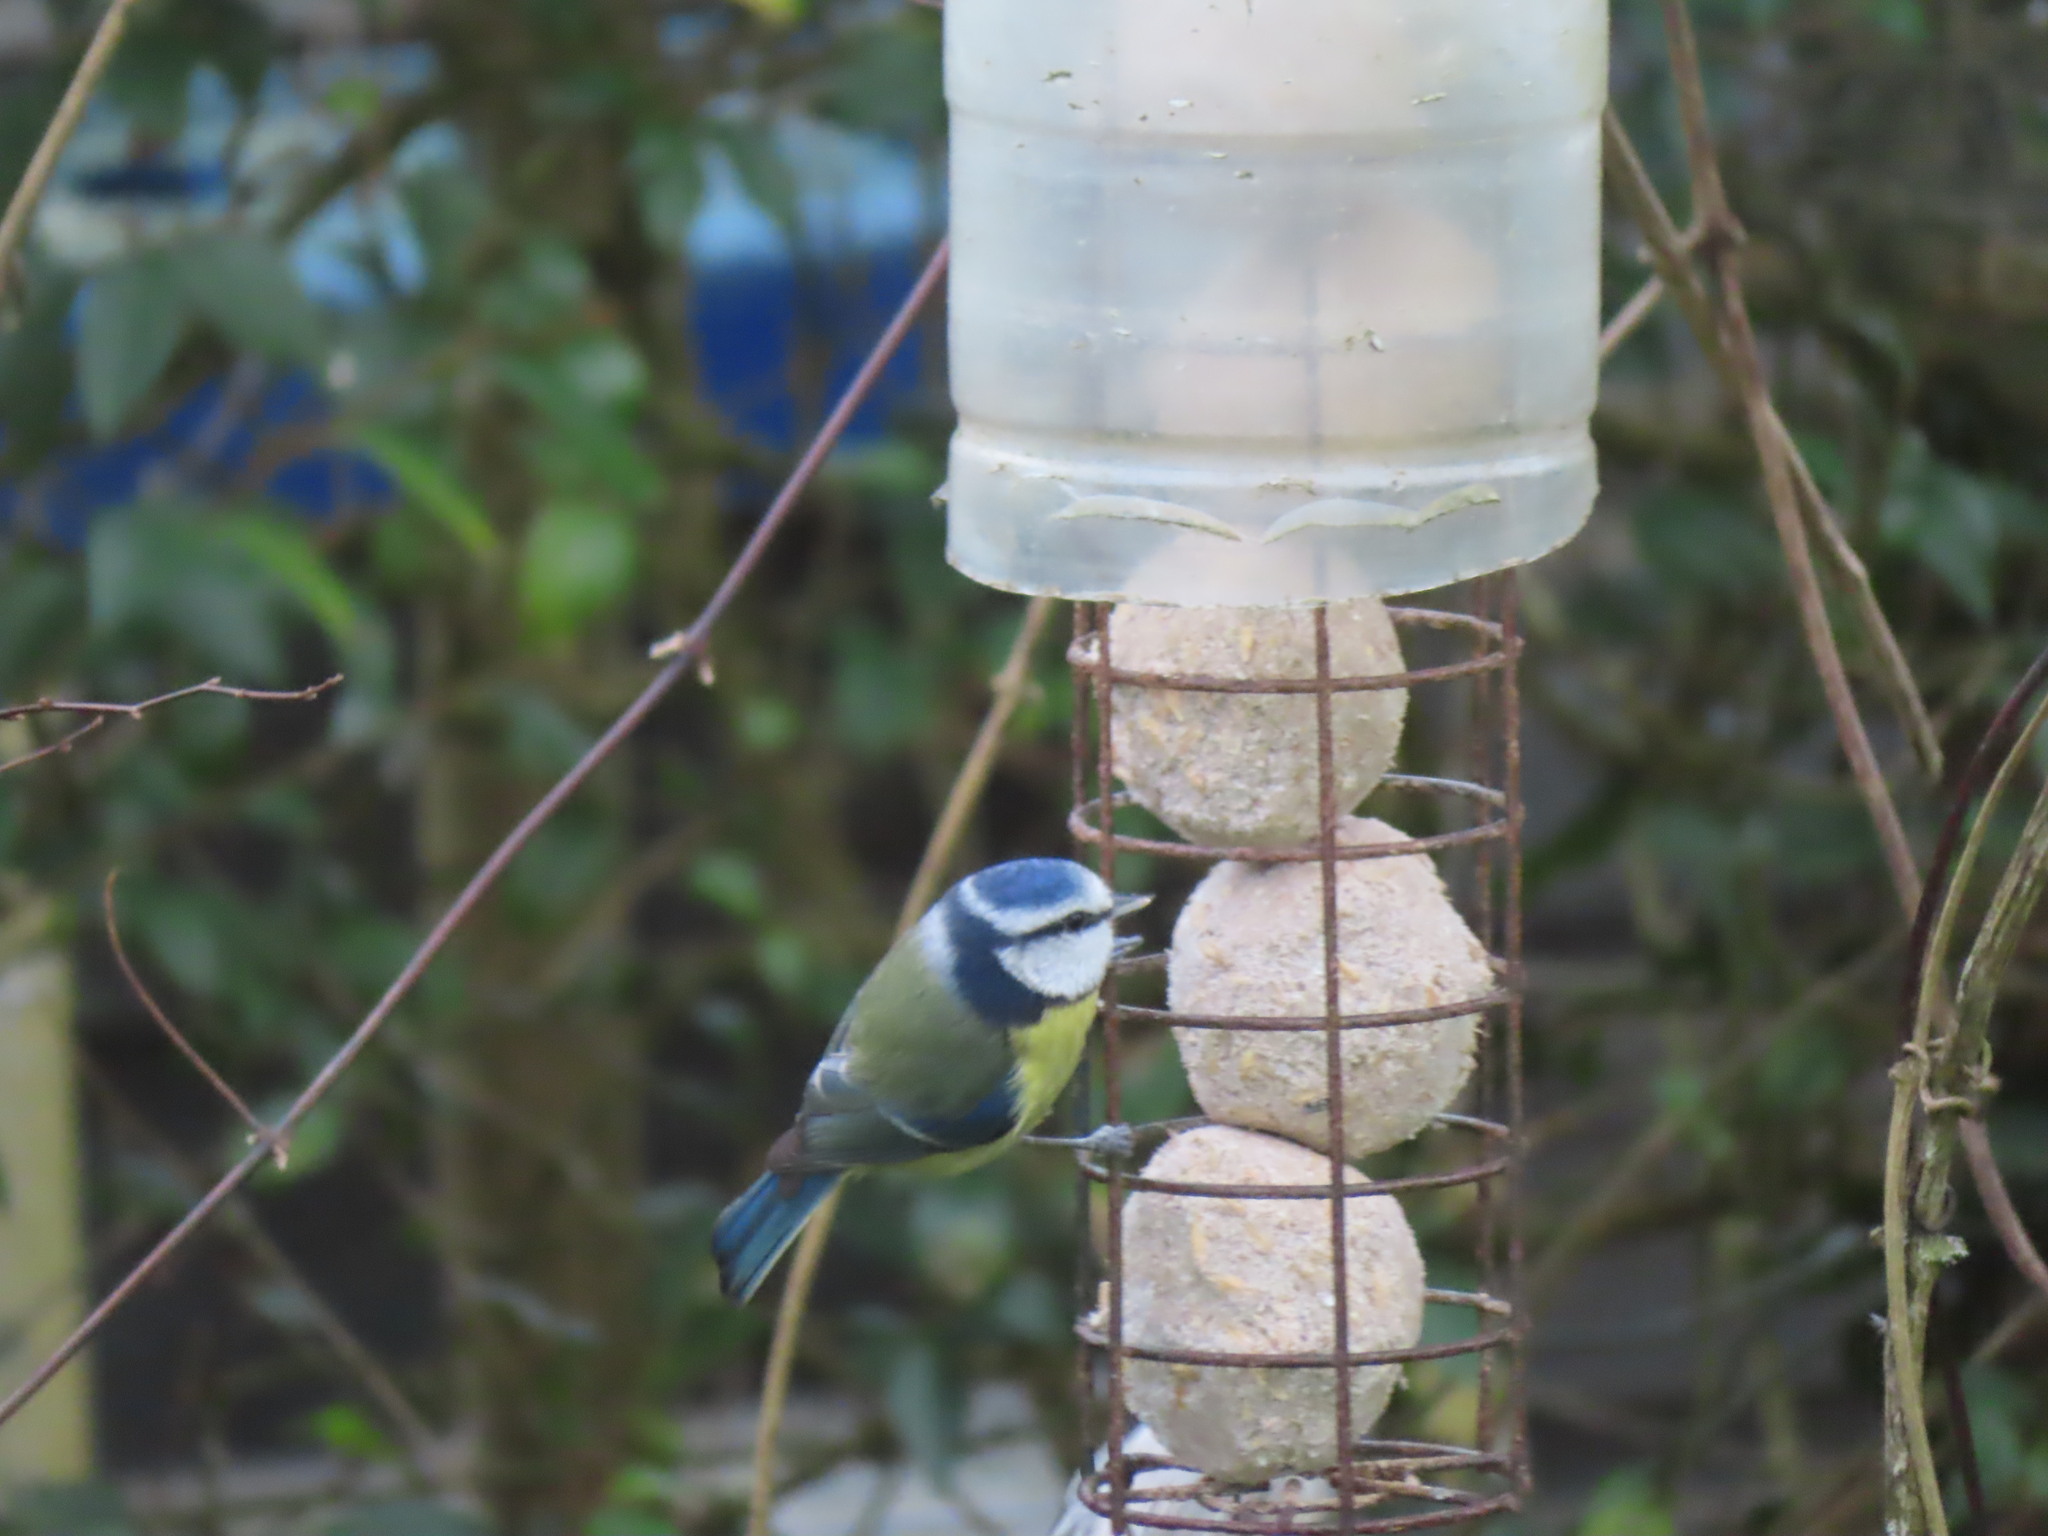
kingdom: Animalia
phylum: Chordata
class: Aves
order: Passeriformes
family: Paridae
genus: Cyanistes
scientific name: Cyanistes caeruleus
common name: Eurasian blue tit
